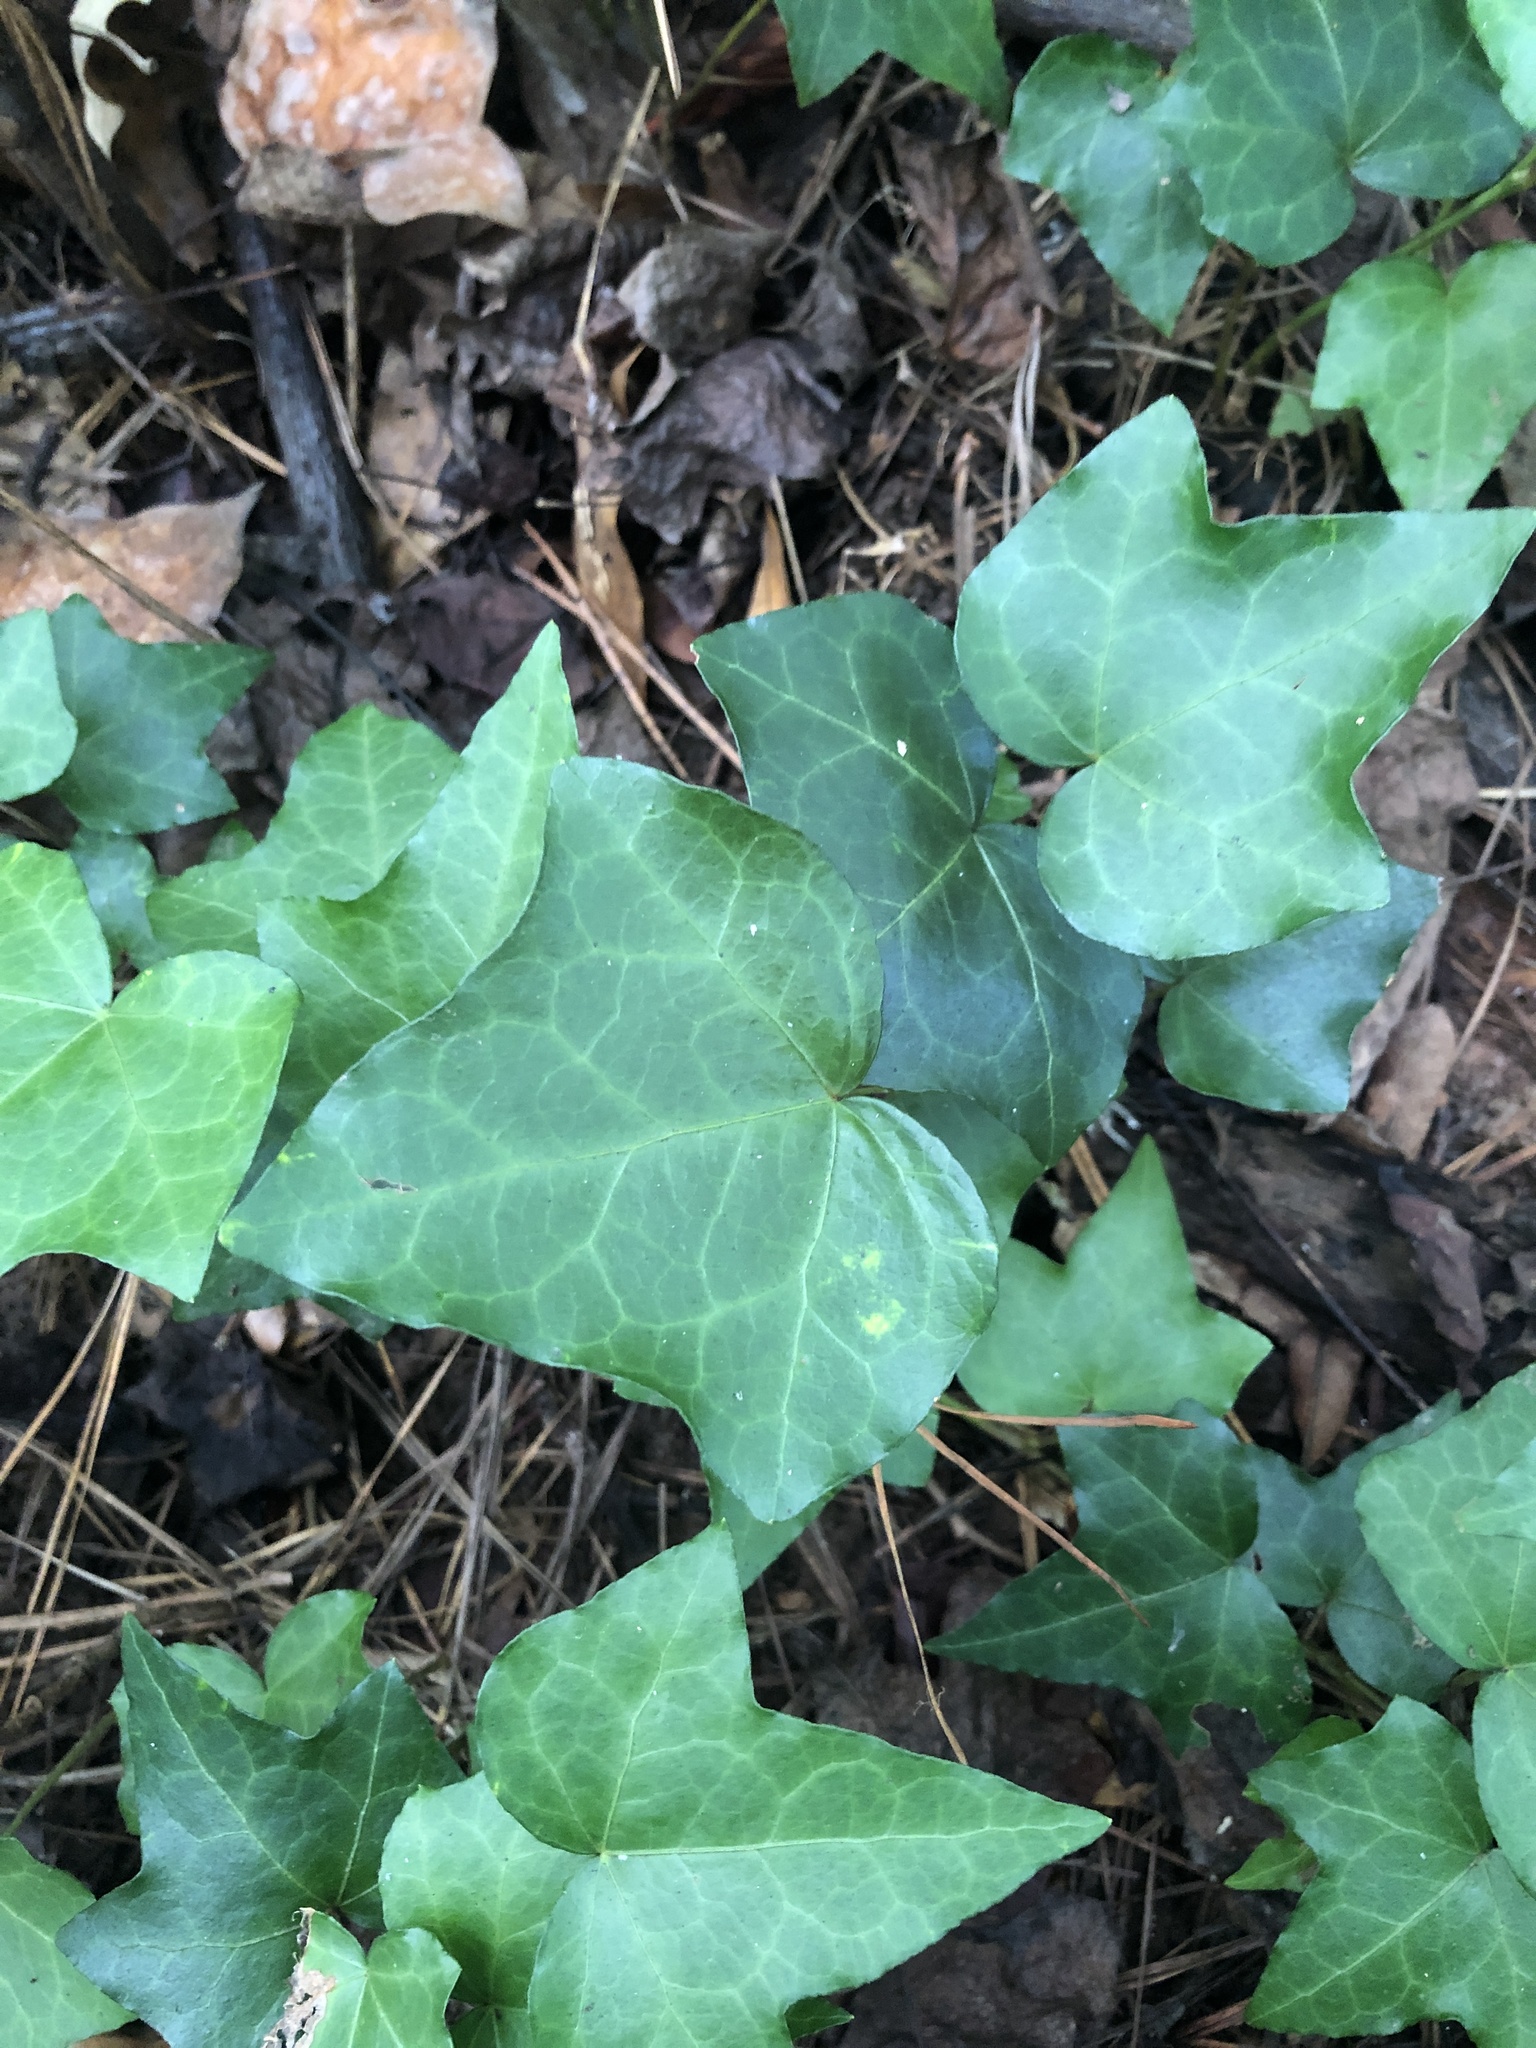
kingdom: Plantae
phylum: Tracheophyta
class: Magnoliopsida
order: Apiales
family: Araliaceae
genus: Hedera
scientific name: Hedera helix
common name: Ivy
